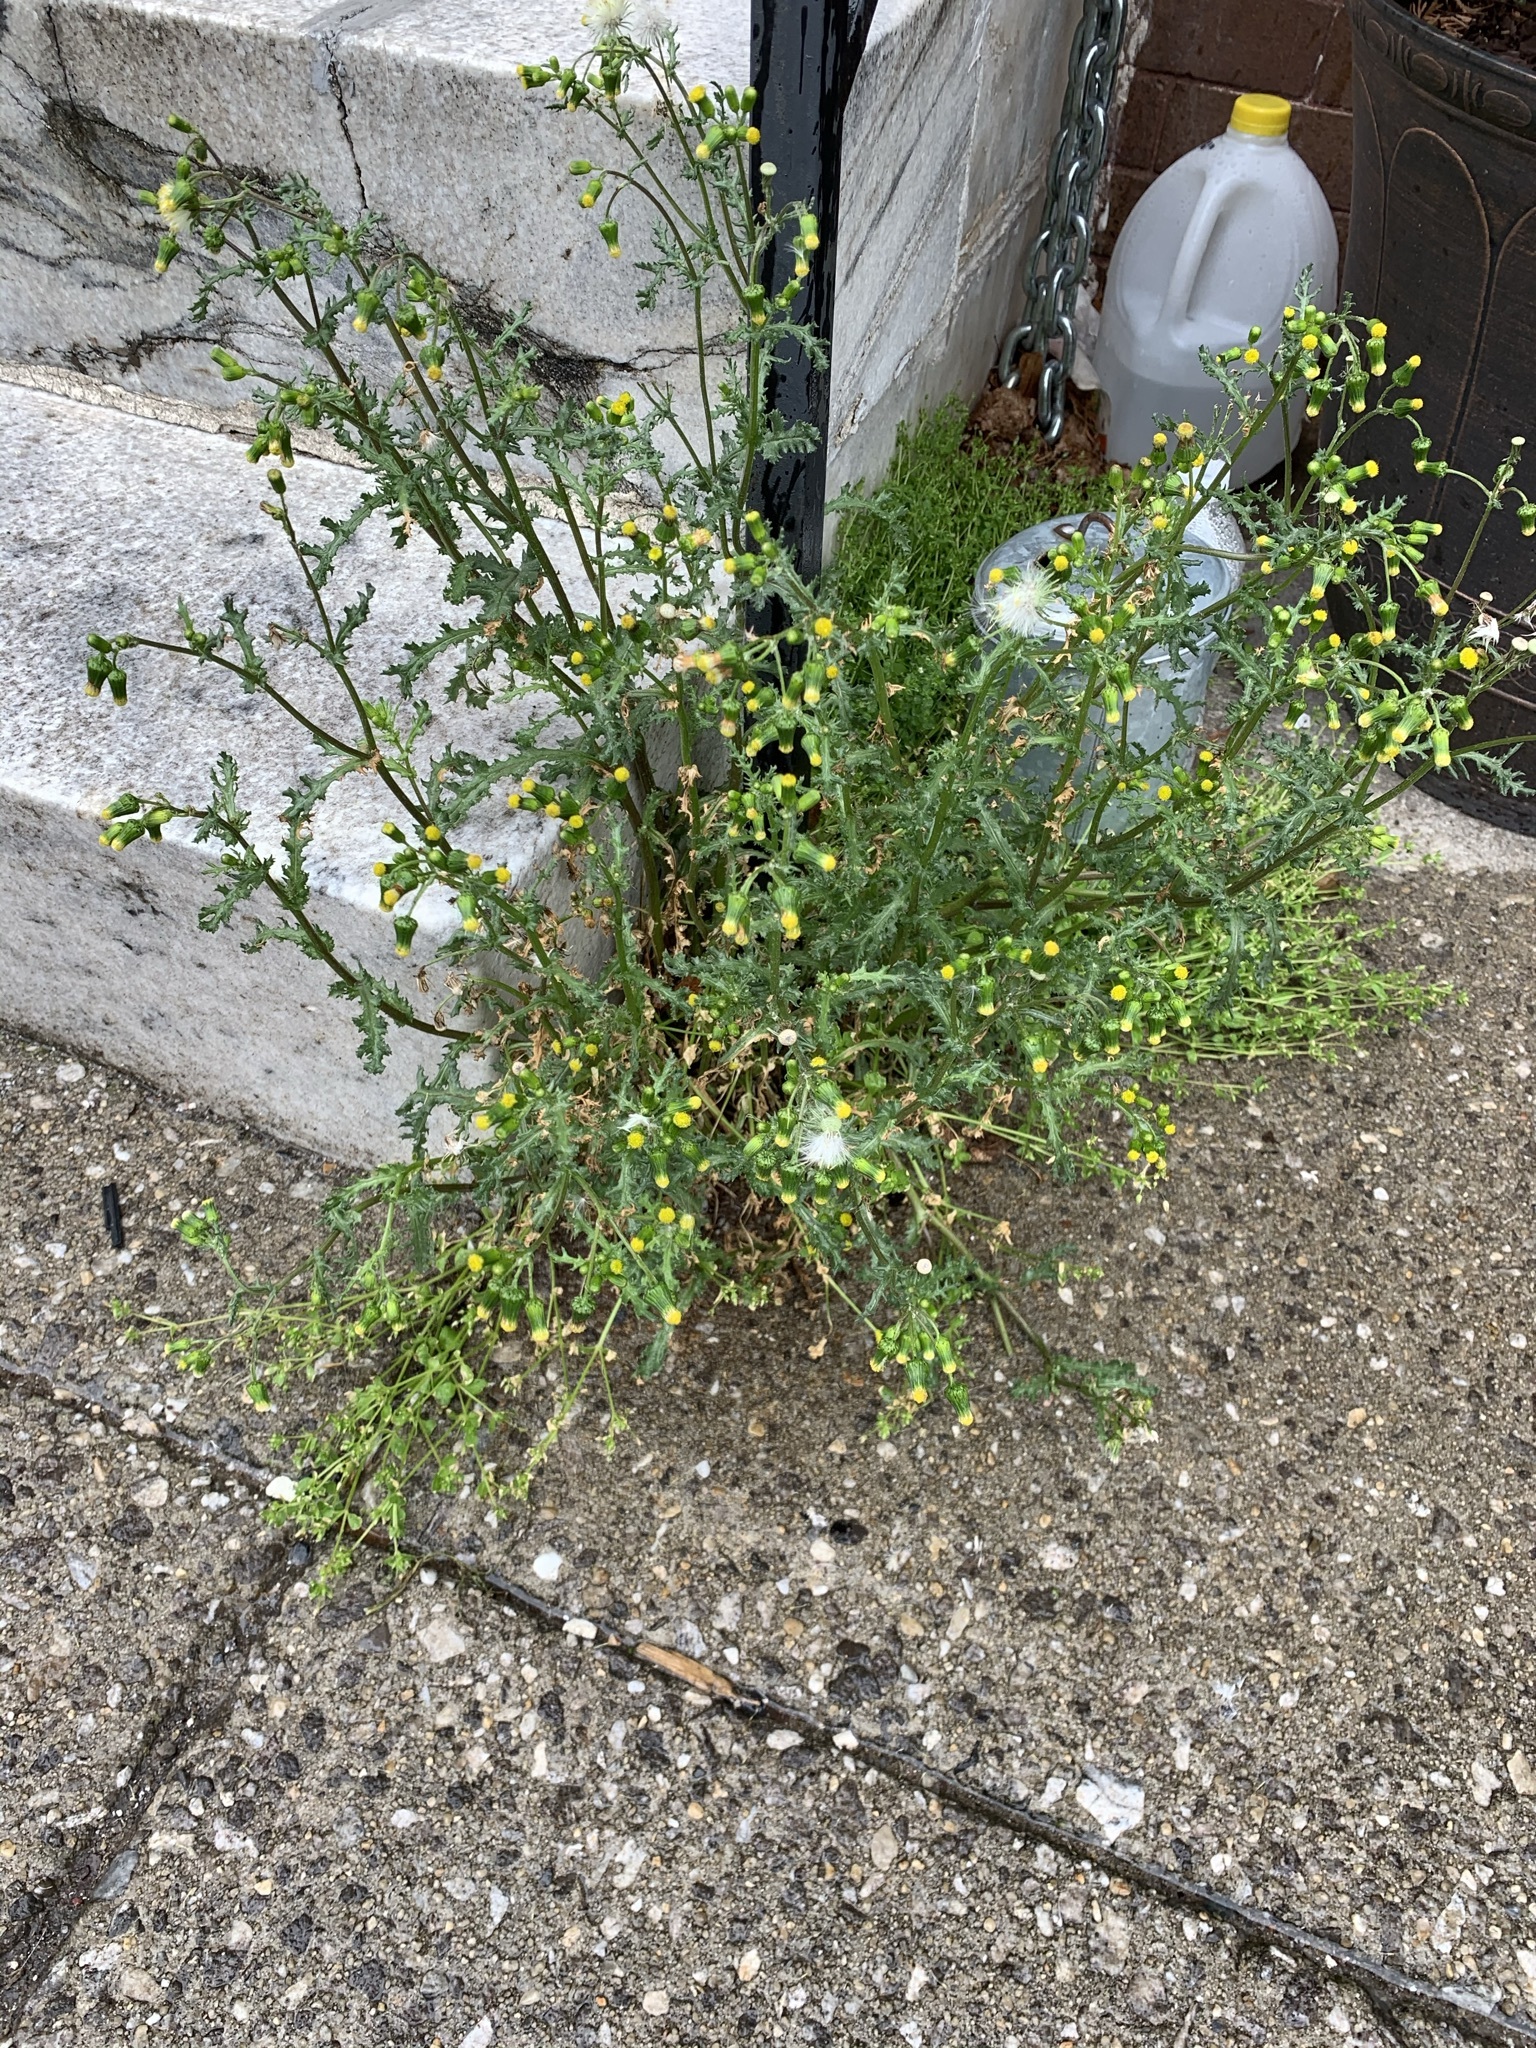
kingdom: Plantae
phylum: Tracheophyta
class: Magnoliopsida
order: Asterales
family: Asteraceae
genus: Senecio
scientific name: Senecio vulgaris
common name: Old-man-in-the-spring
